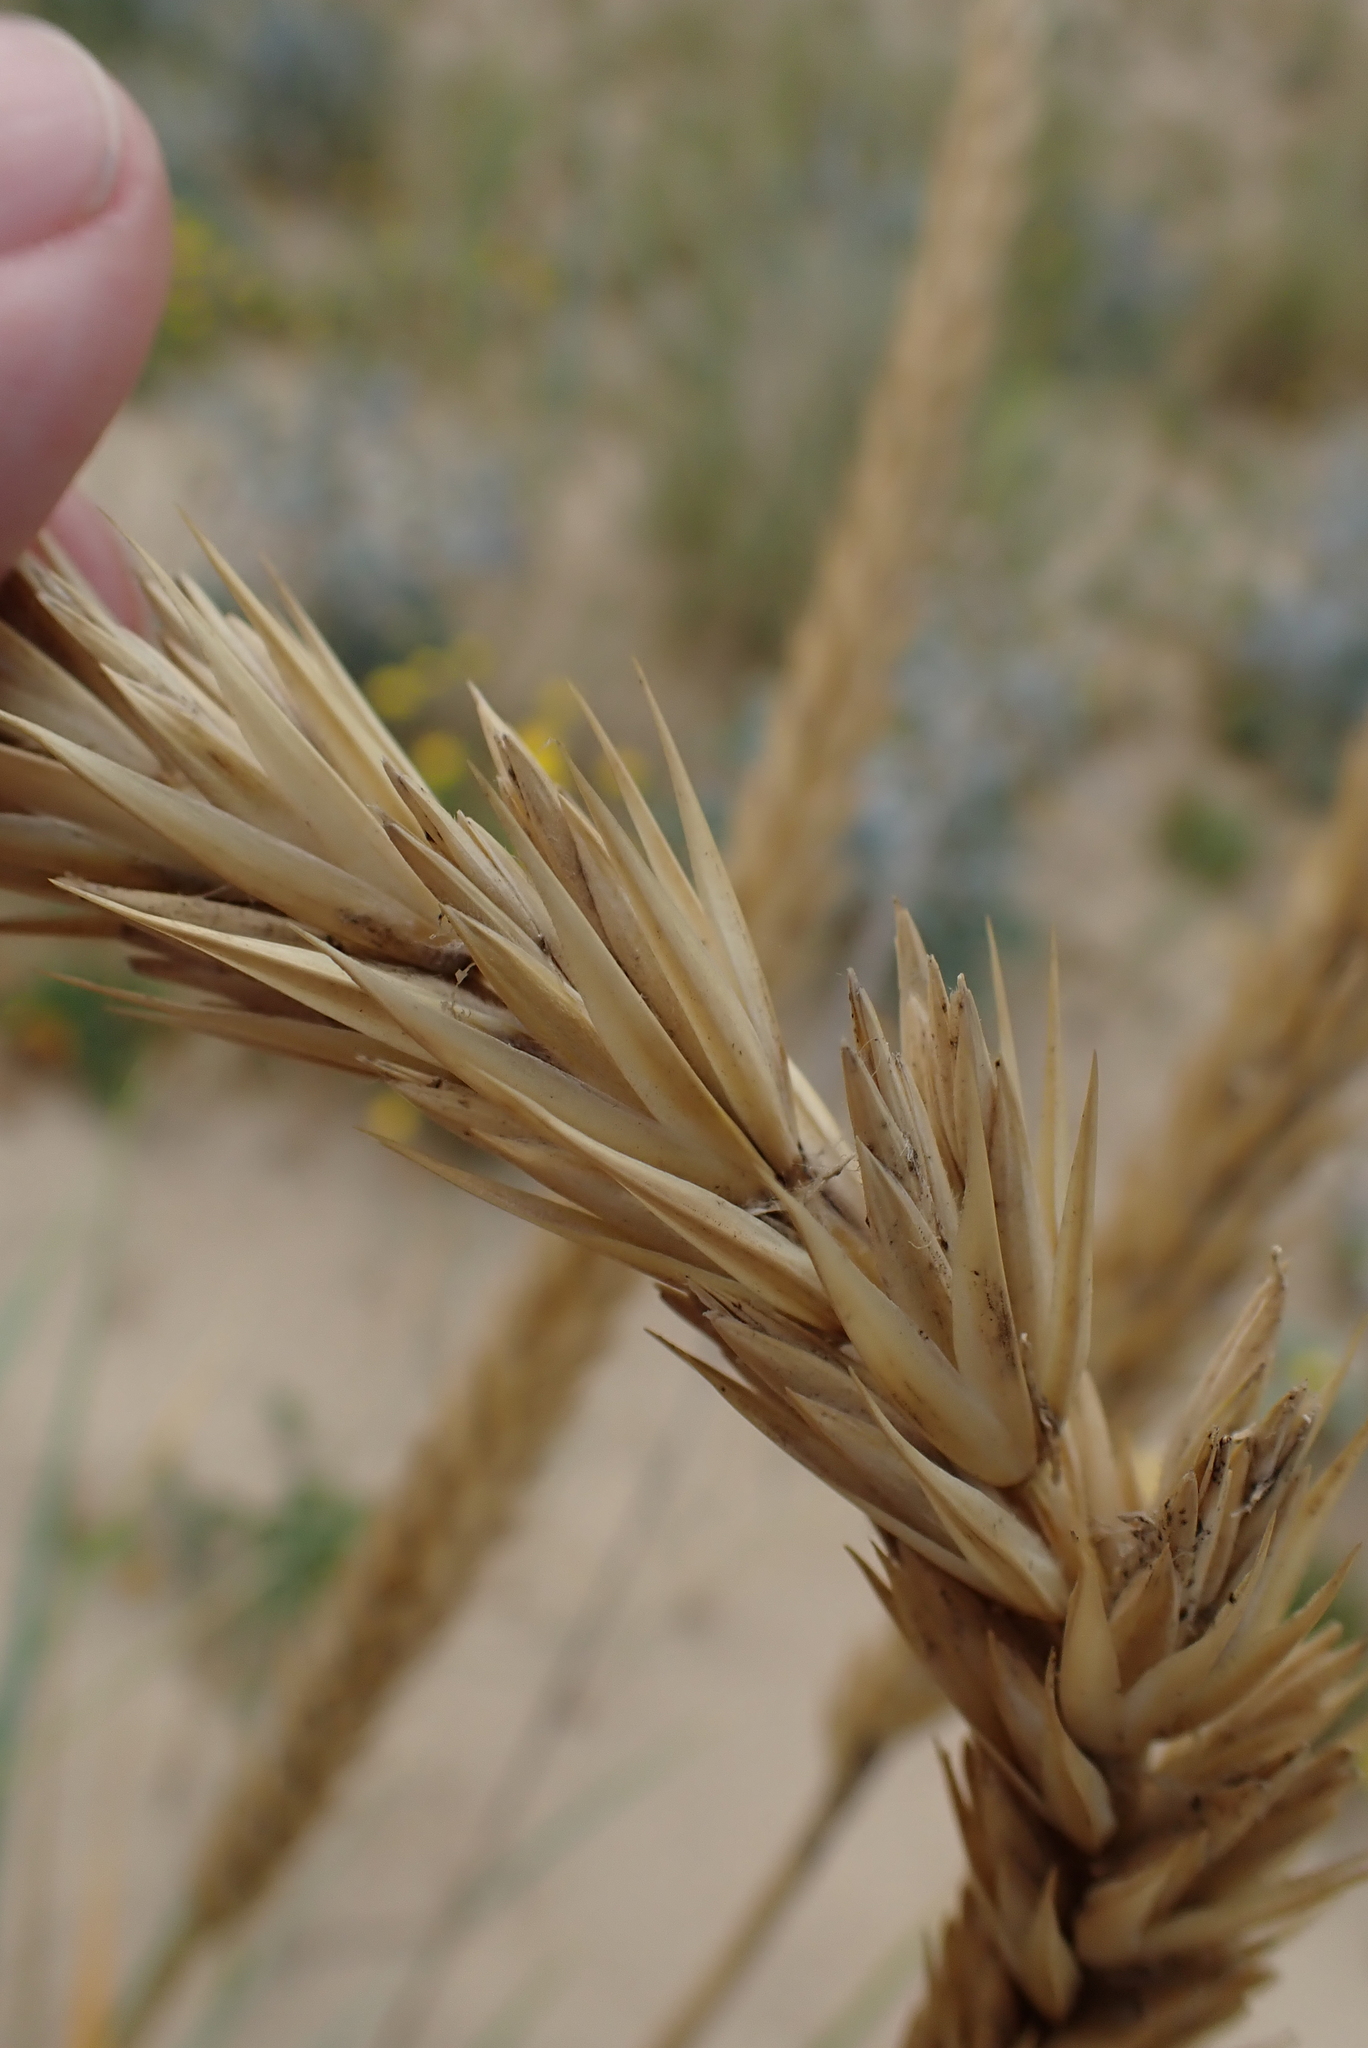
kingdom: Plantae
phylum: Tracheophyta
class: Liliopsida
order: Poales
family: Poaceae
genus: Leymus
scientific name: Leymus arenarius
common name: Lyme-grass
